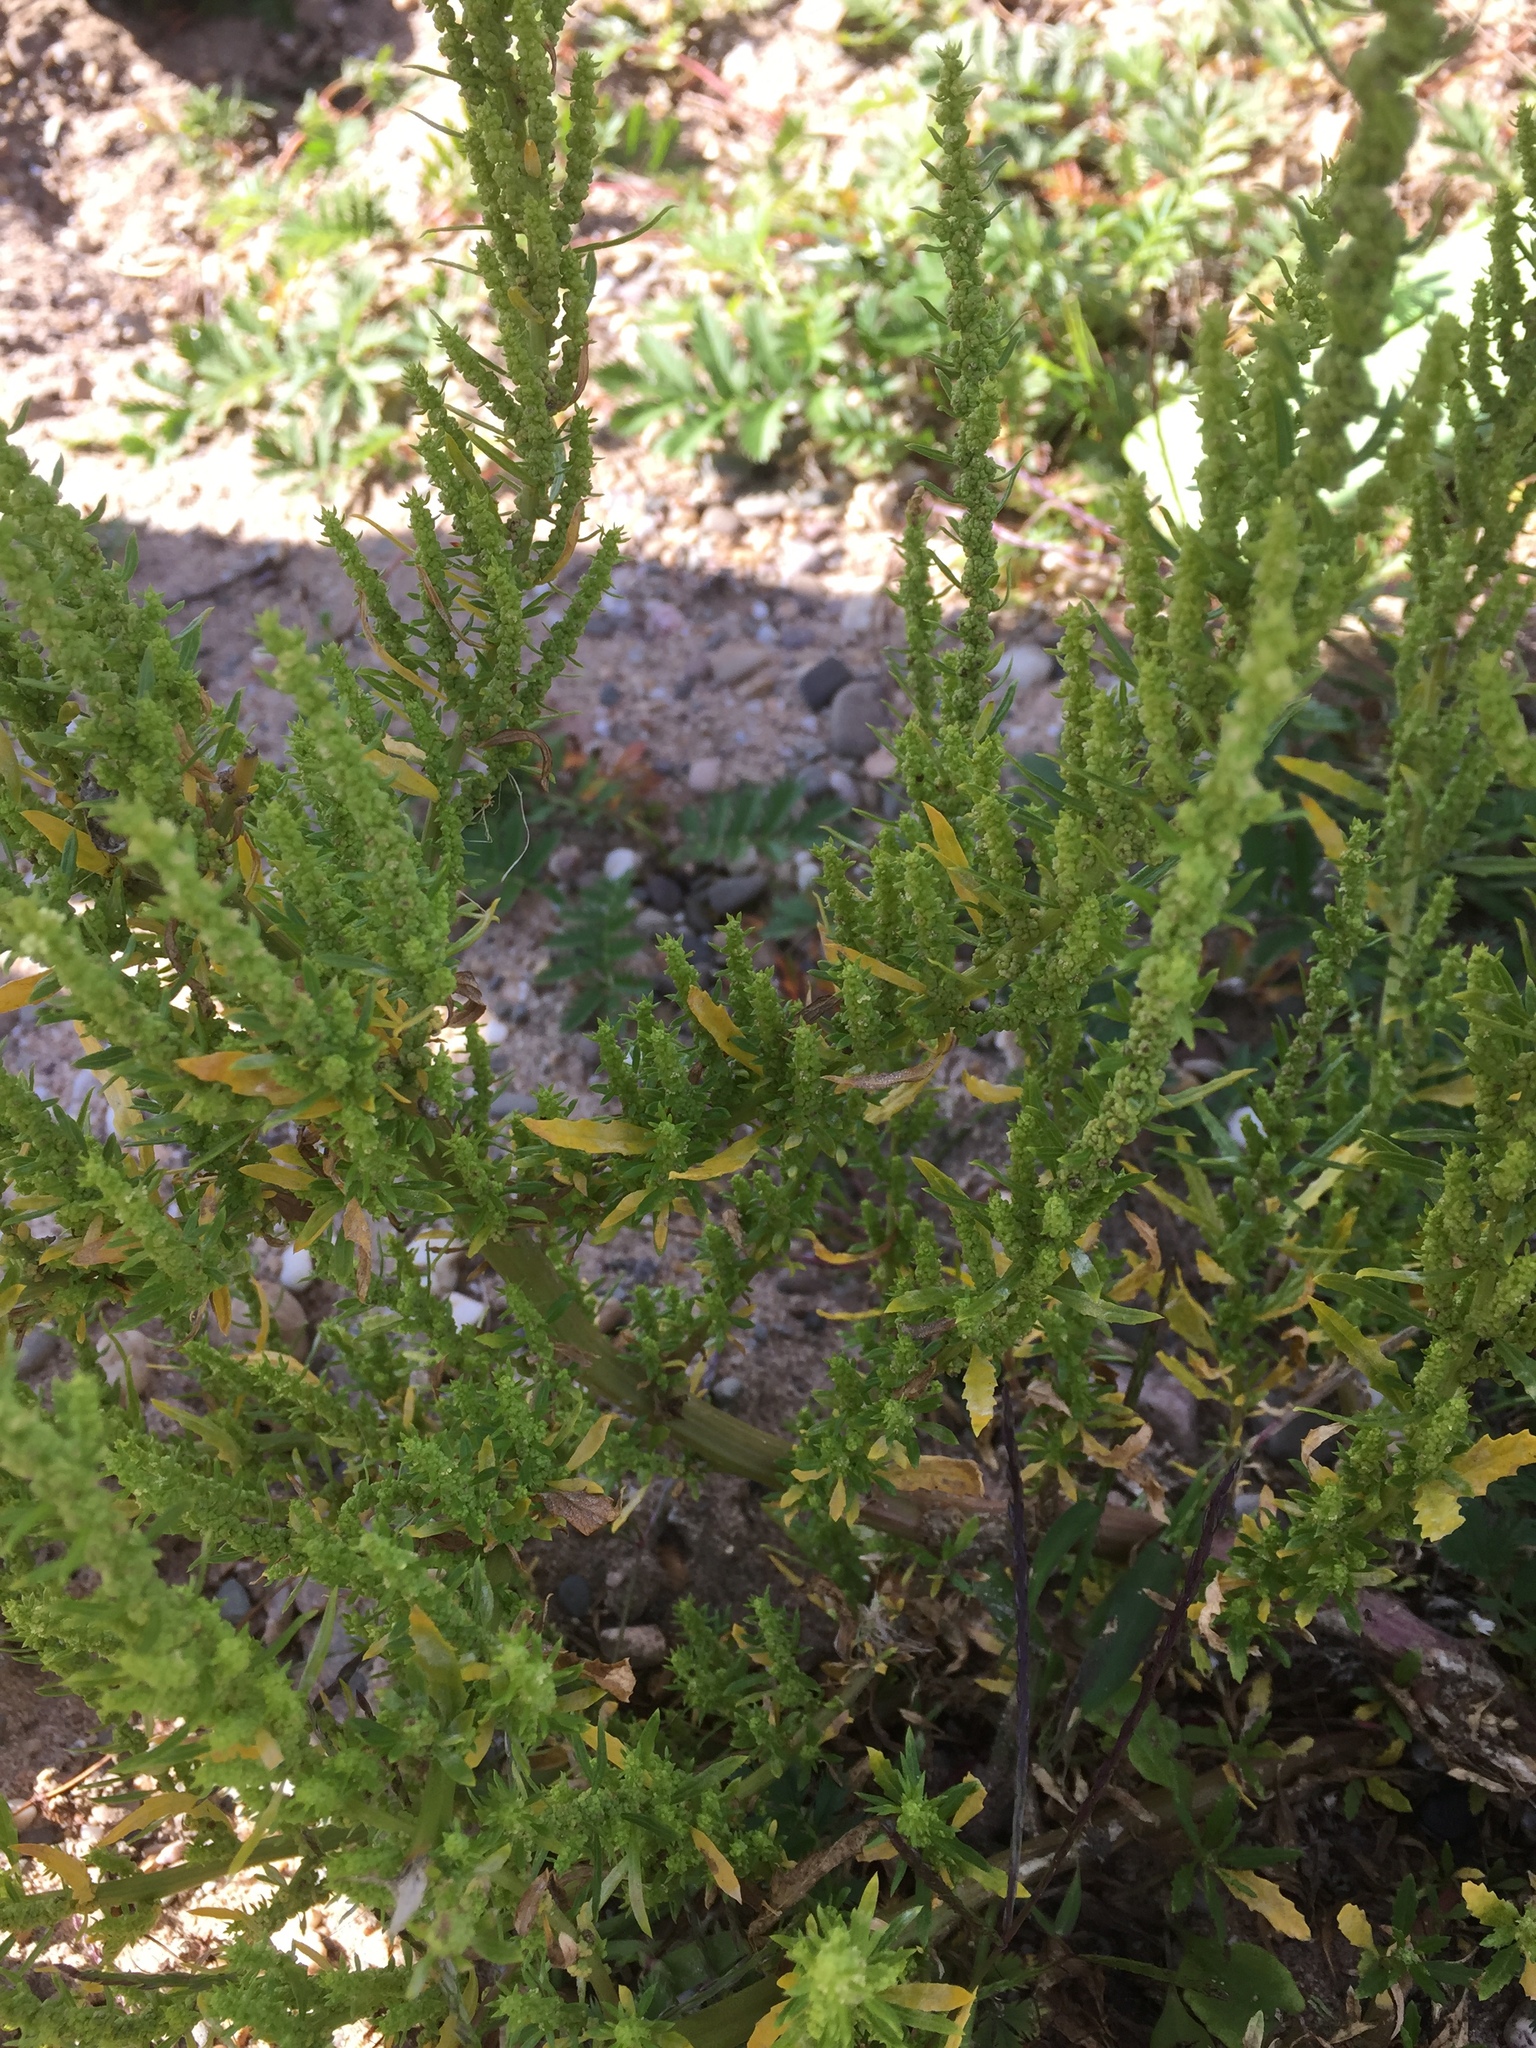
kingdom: Plantae
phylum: Tracheophyta
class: Magnoliopsida
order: Caryophyllales
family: Amaranthaceae
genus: Dysphania
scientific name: Dysphania ambrosioides
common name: Wormseed
